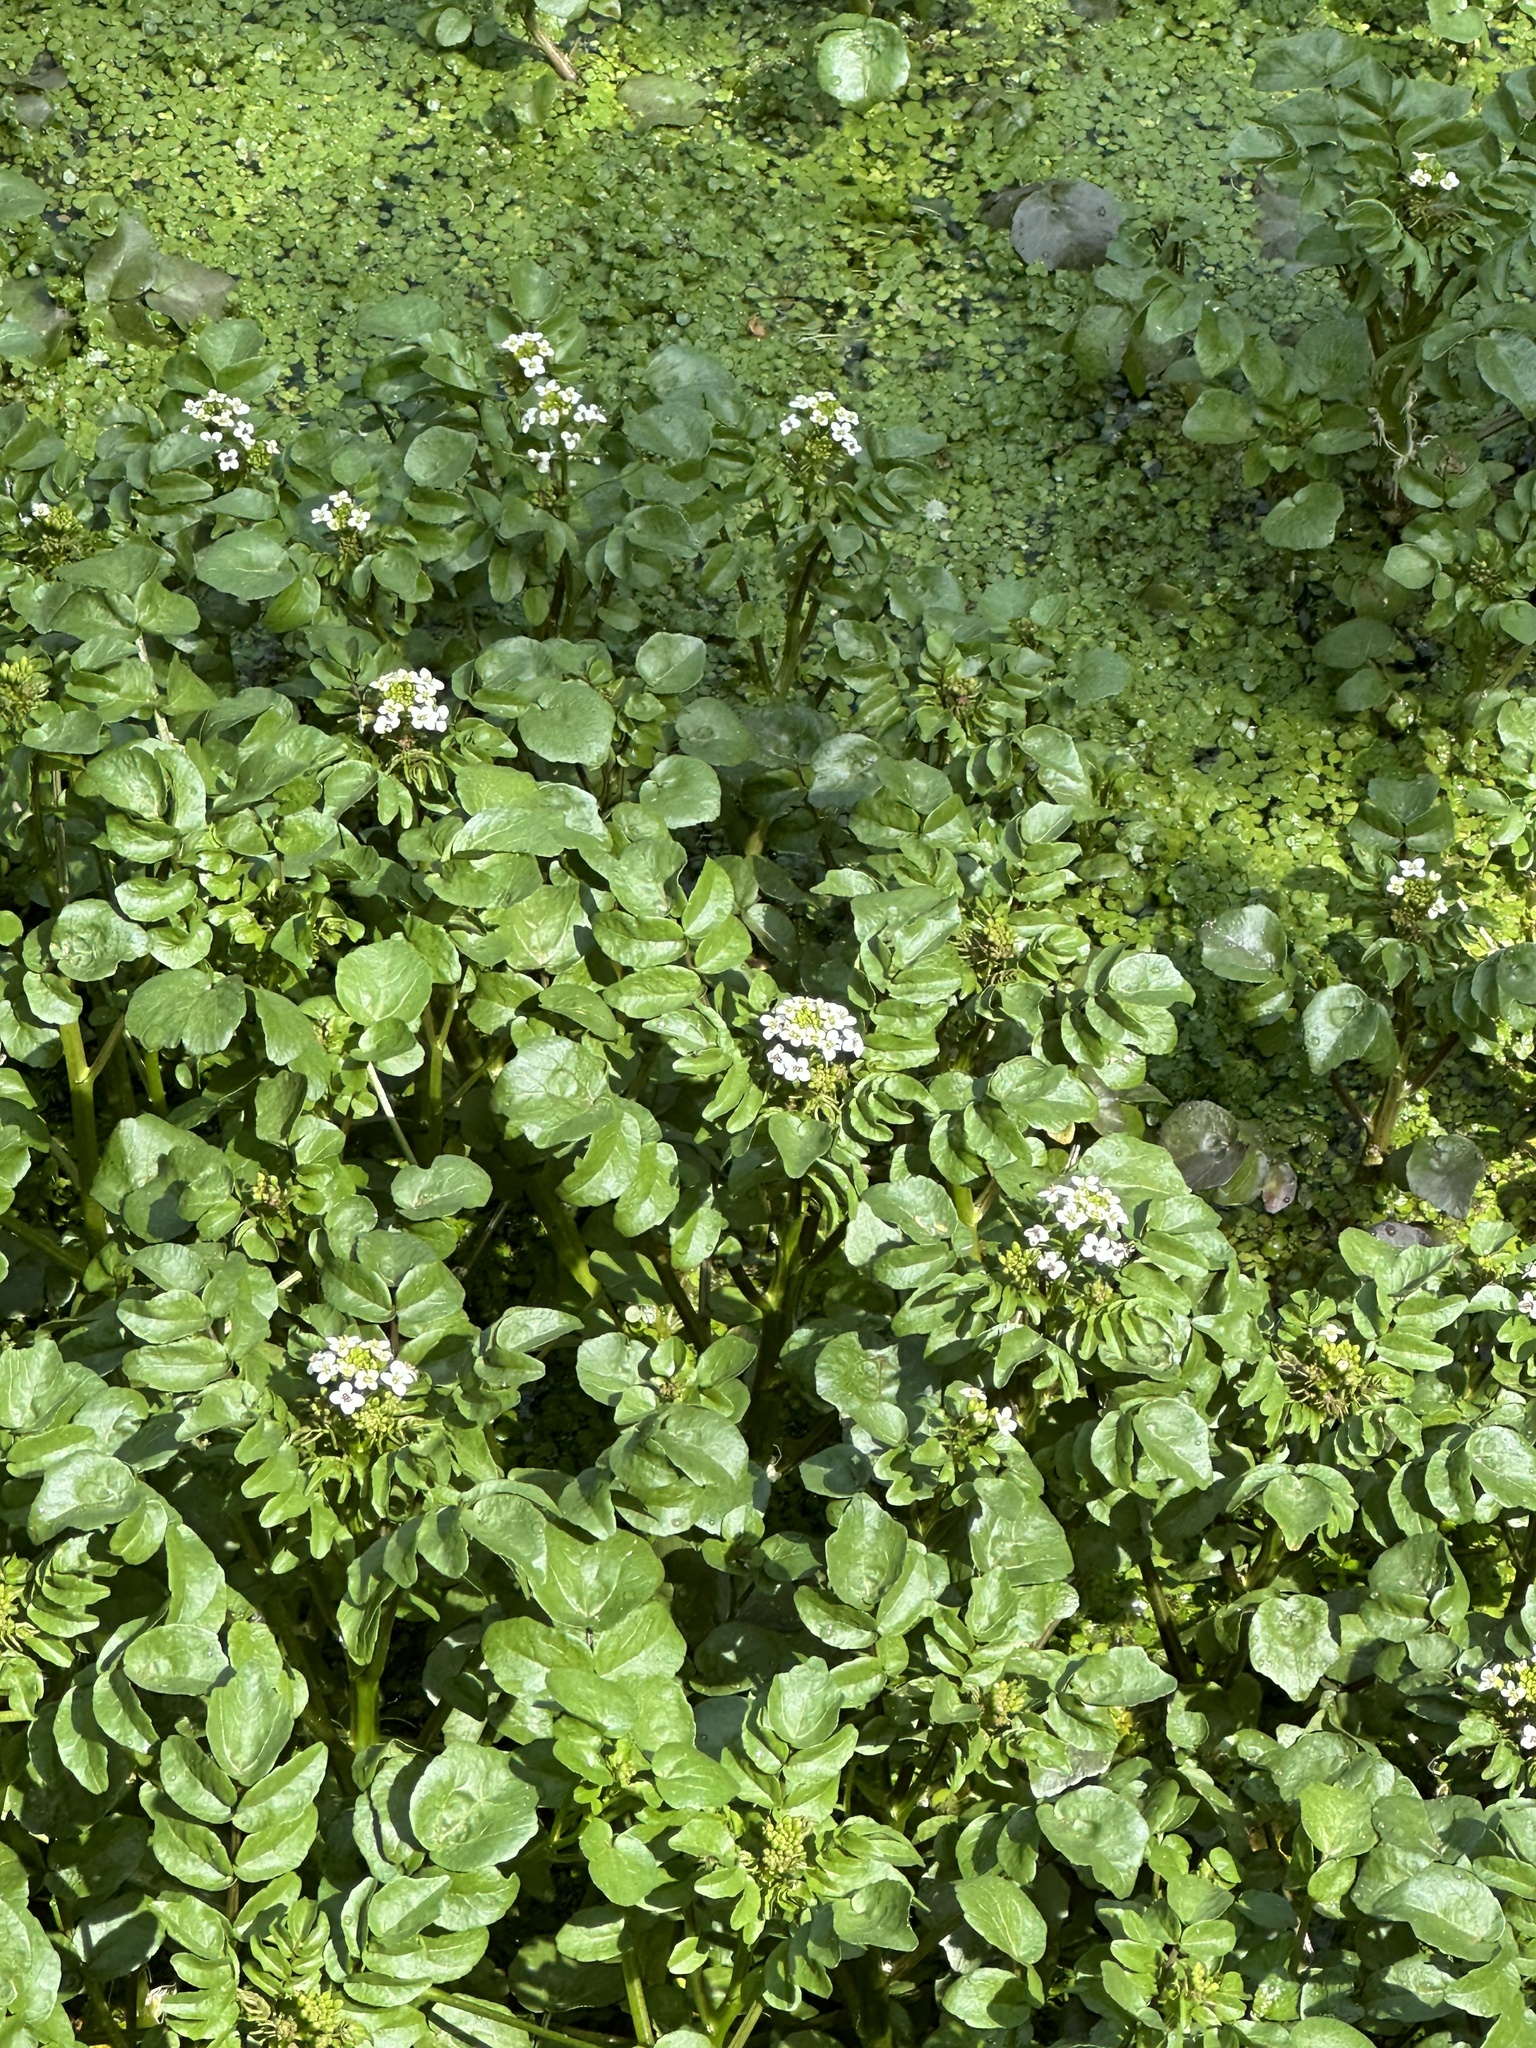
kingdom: Plantae
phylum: Tracheophyta
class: Magnoliopsida
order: Brassicales
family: Brassicaceae
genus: Nasturtium
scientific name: Nasturtium officinale
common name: Watercress
